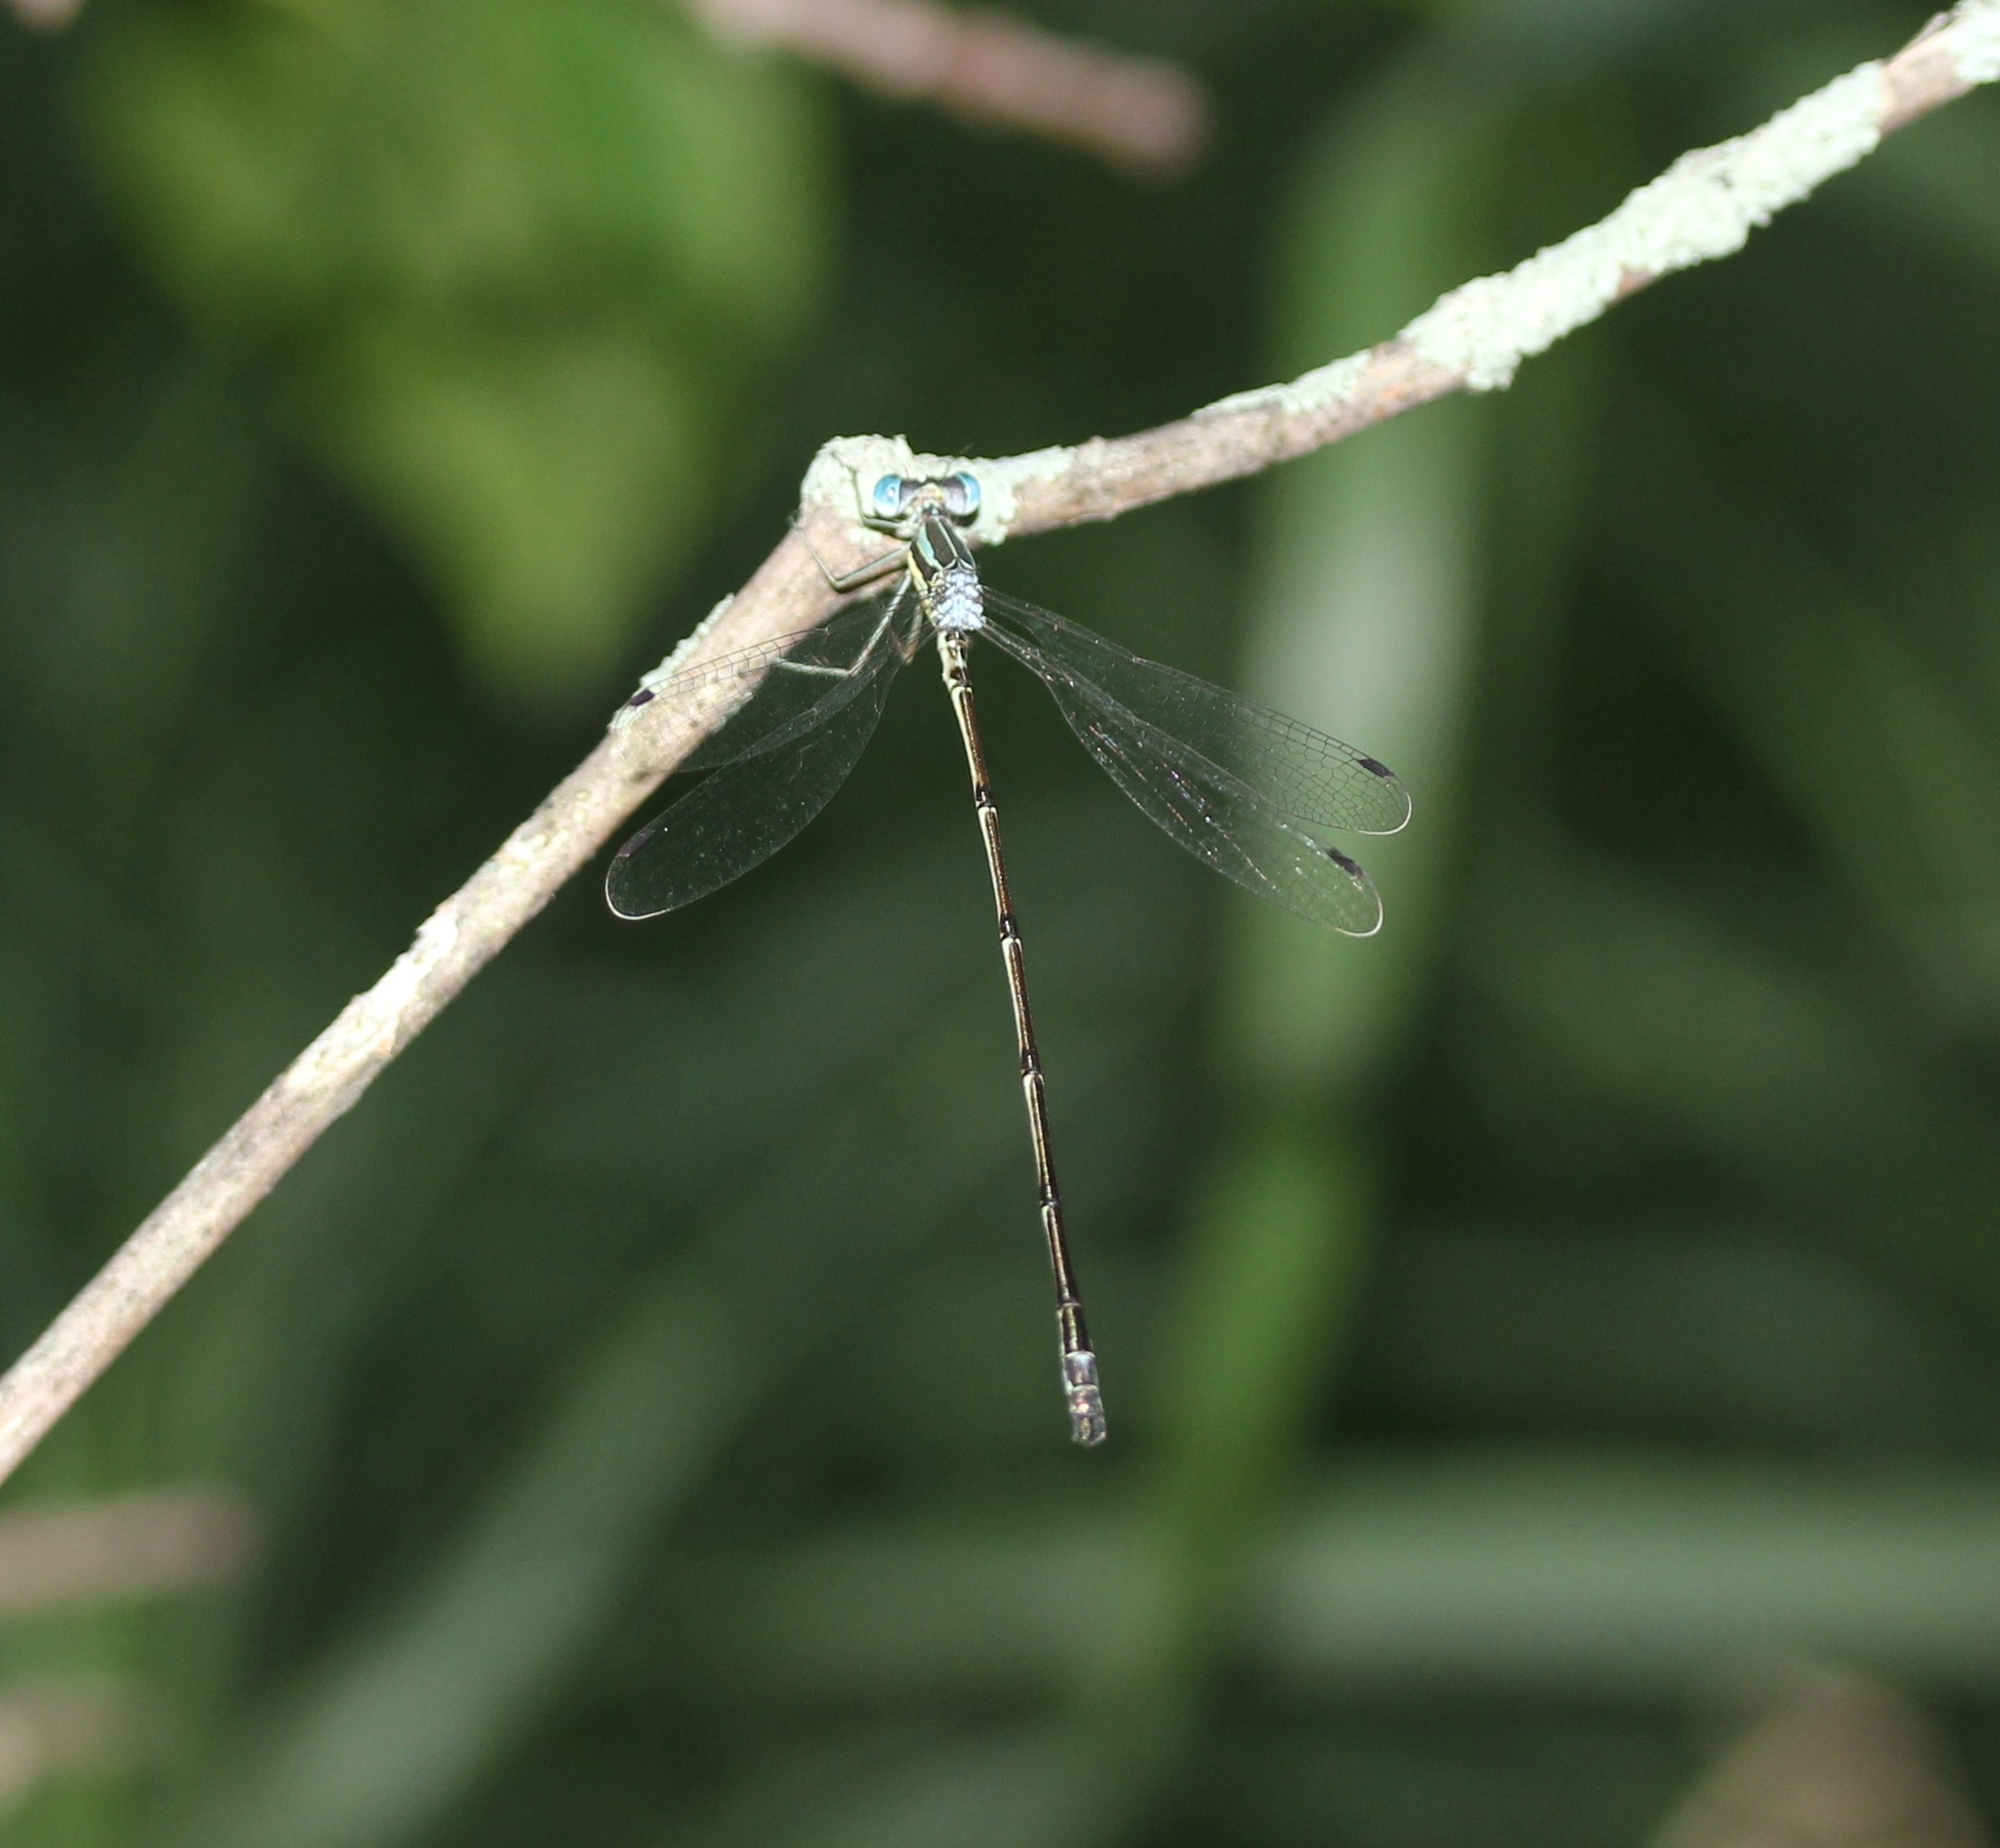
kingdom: Animalia
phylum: Arthropoda
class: Insecta
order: Odonata
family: Lestidae
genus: Lestes
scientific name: Lestes rectangularis
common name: Slender spreadwing
